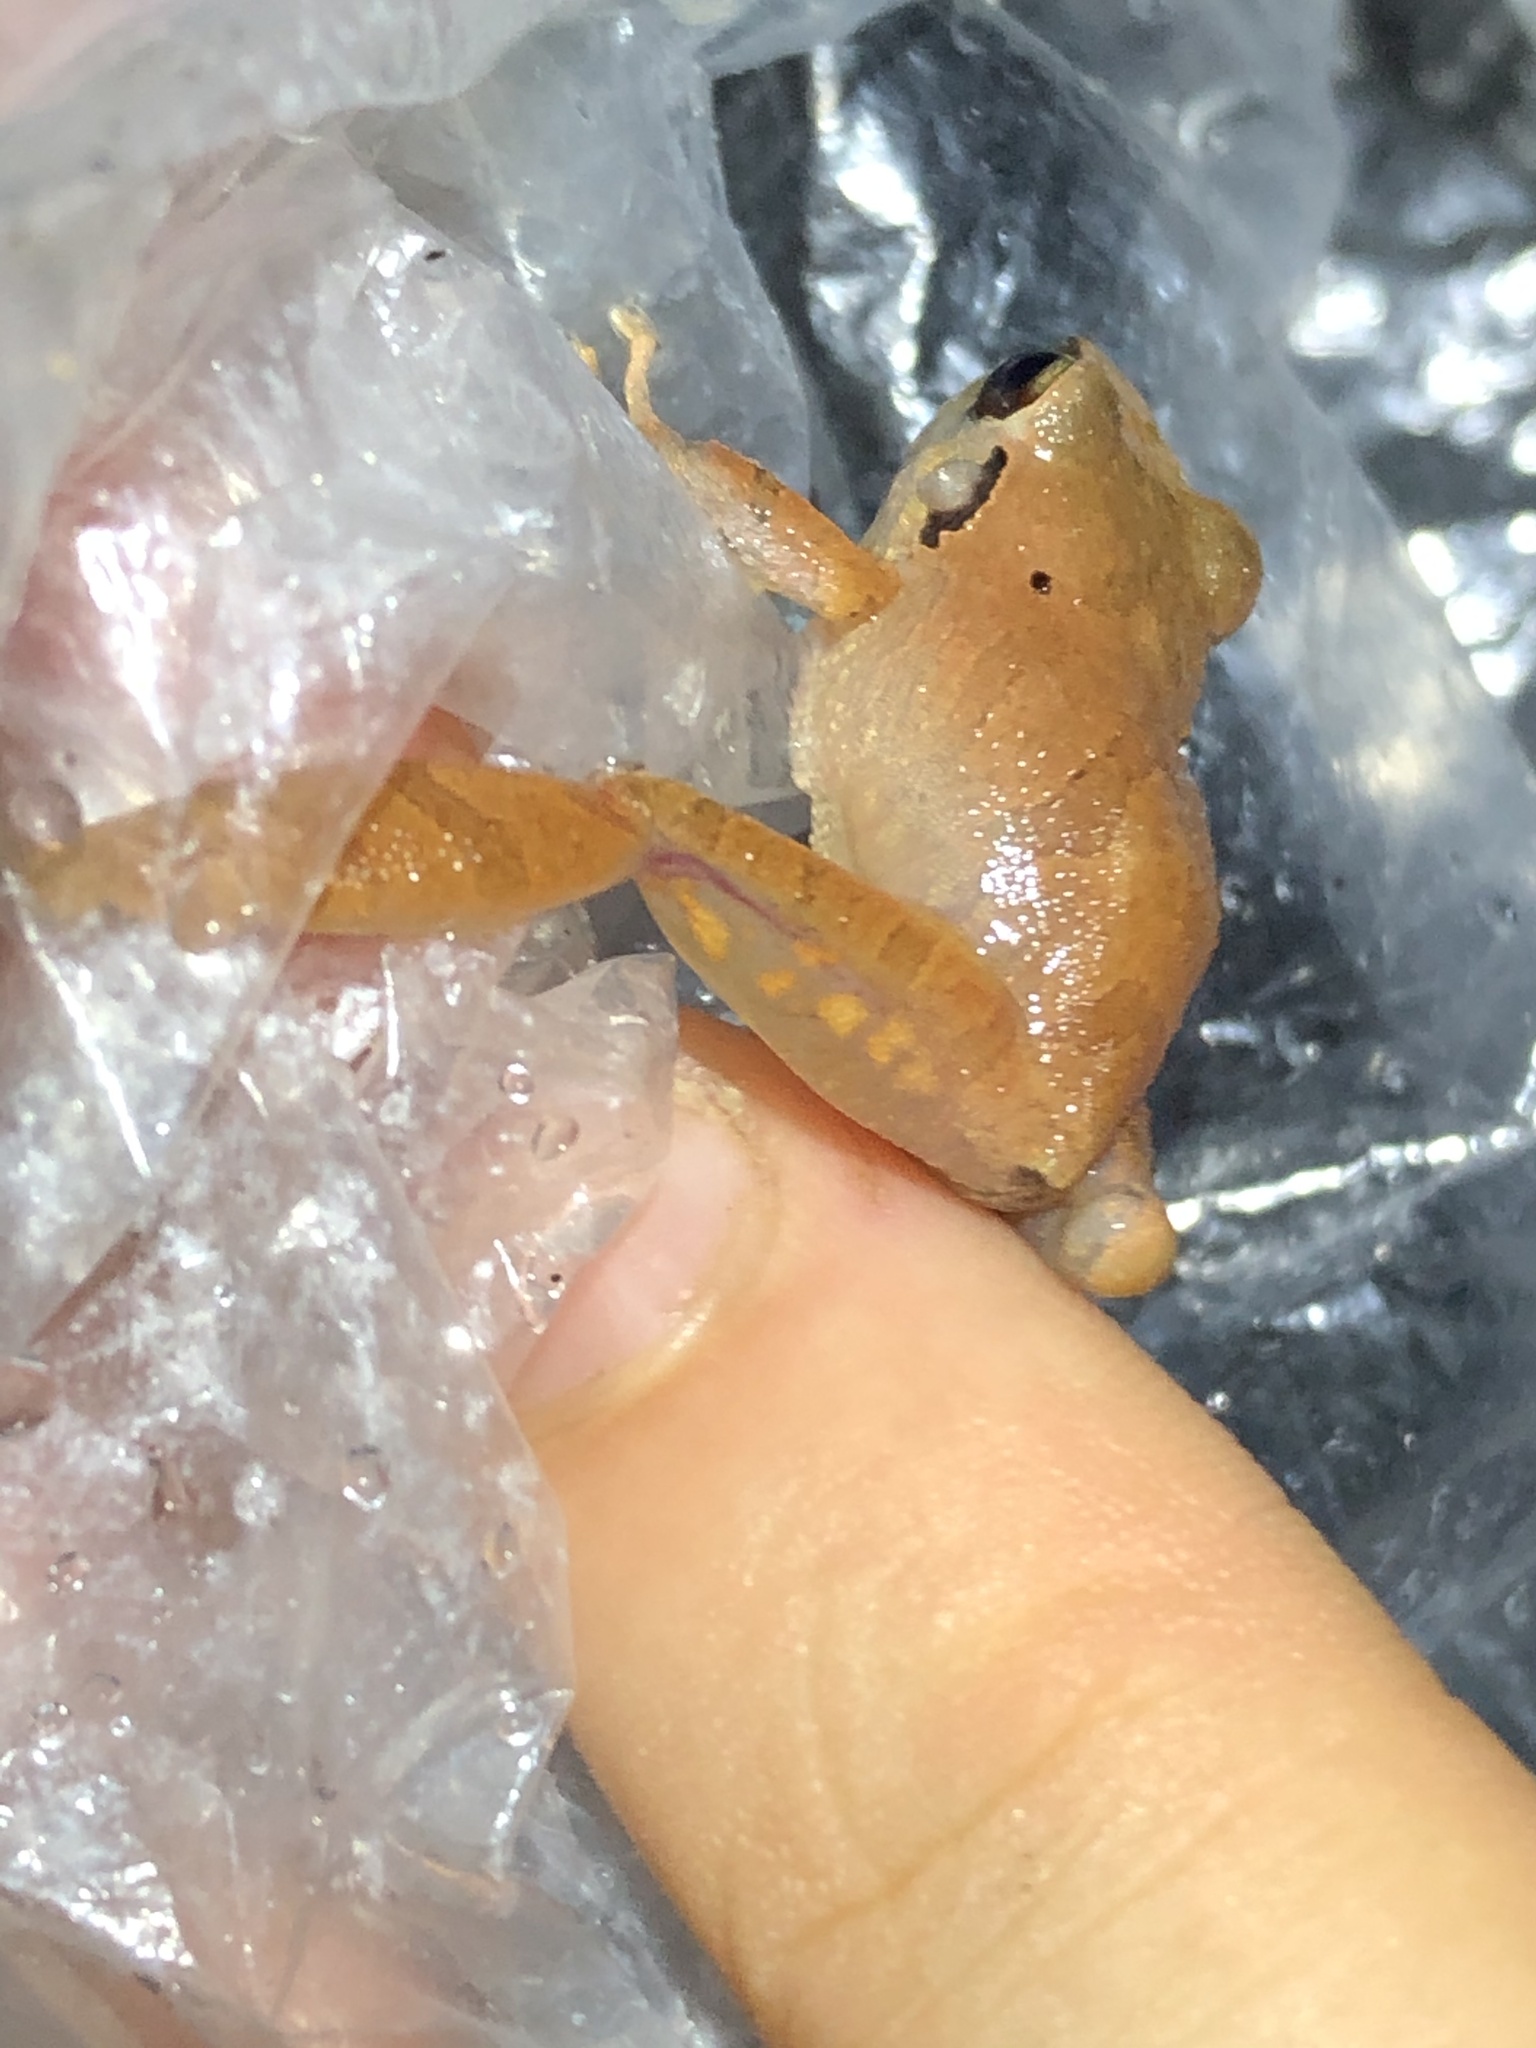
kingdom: Animalia
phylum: Chordata
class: Amphibia
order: Anura
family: Craugastoridae
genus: Pristimantis
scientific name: Pristimantis reichlei
